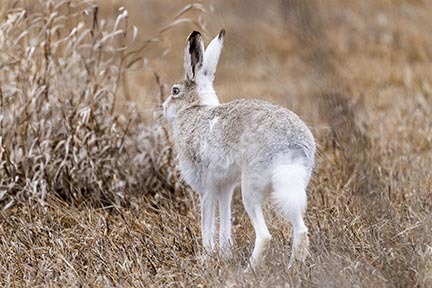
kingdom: Animalia
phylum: Chordata
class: Mammalia
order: Lagomorpha
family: Leporidae
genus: Lepus
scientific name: Lepus townsendii
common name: White-tailed jackrabbit
